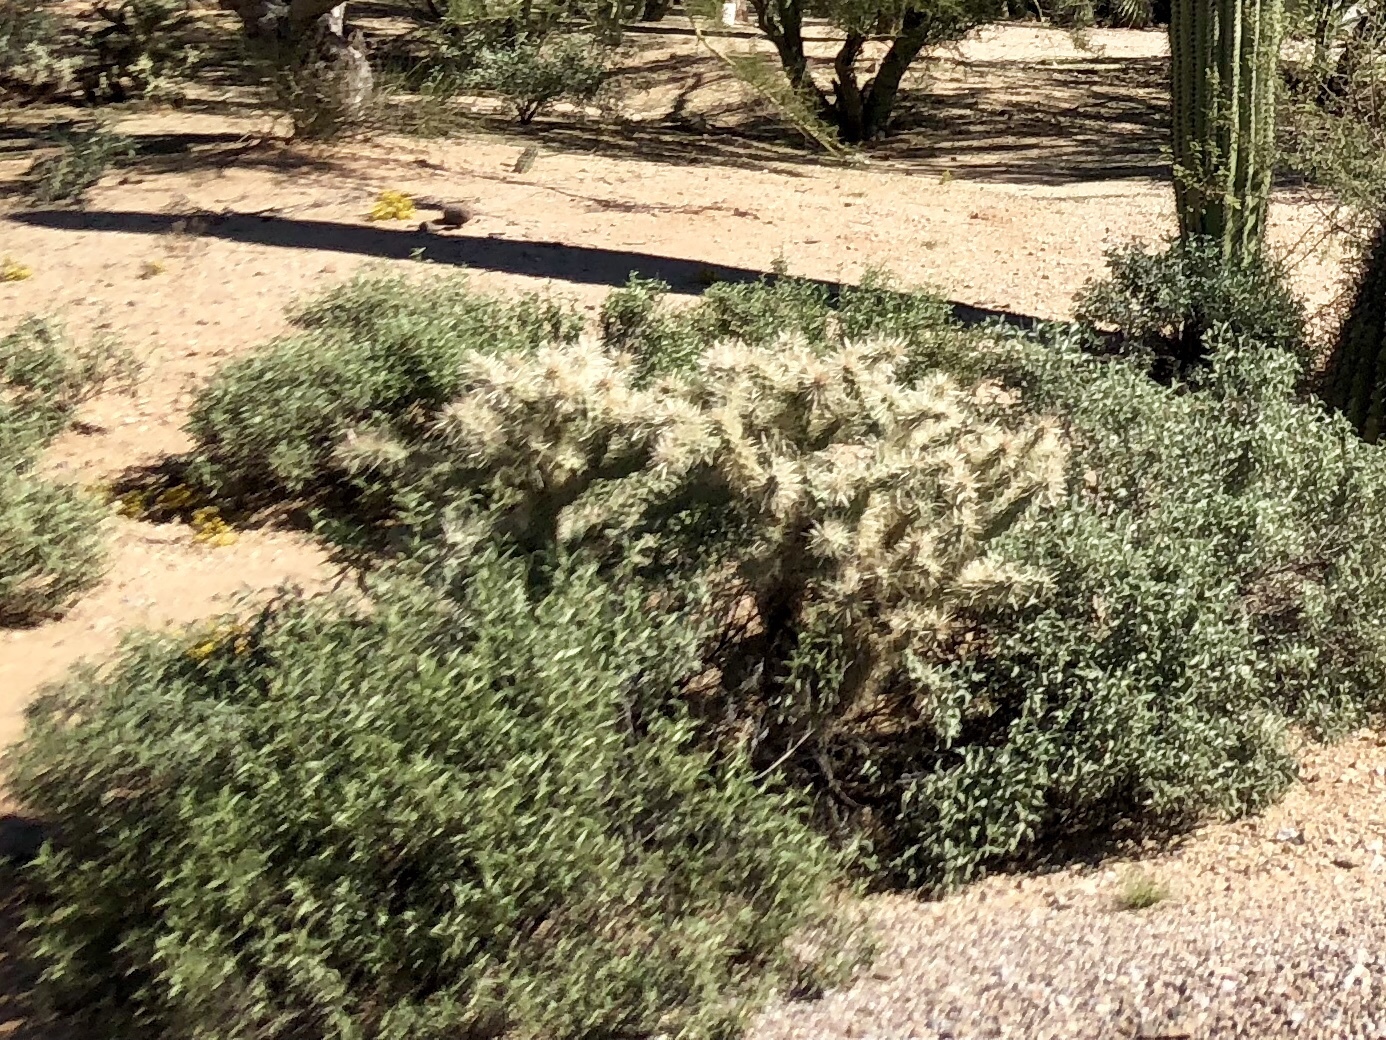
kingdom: Plantae
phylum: Tracheophyta
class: Magnoliopsida
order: Caryophyllales
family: Cactaceae
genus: Cylindropuntia
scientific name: Cylindropuntia fulgida
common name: Jumping cholla
